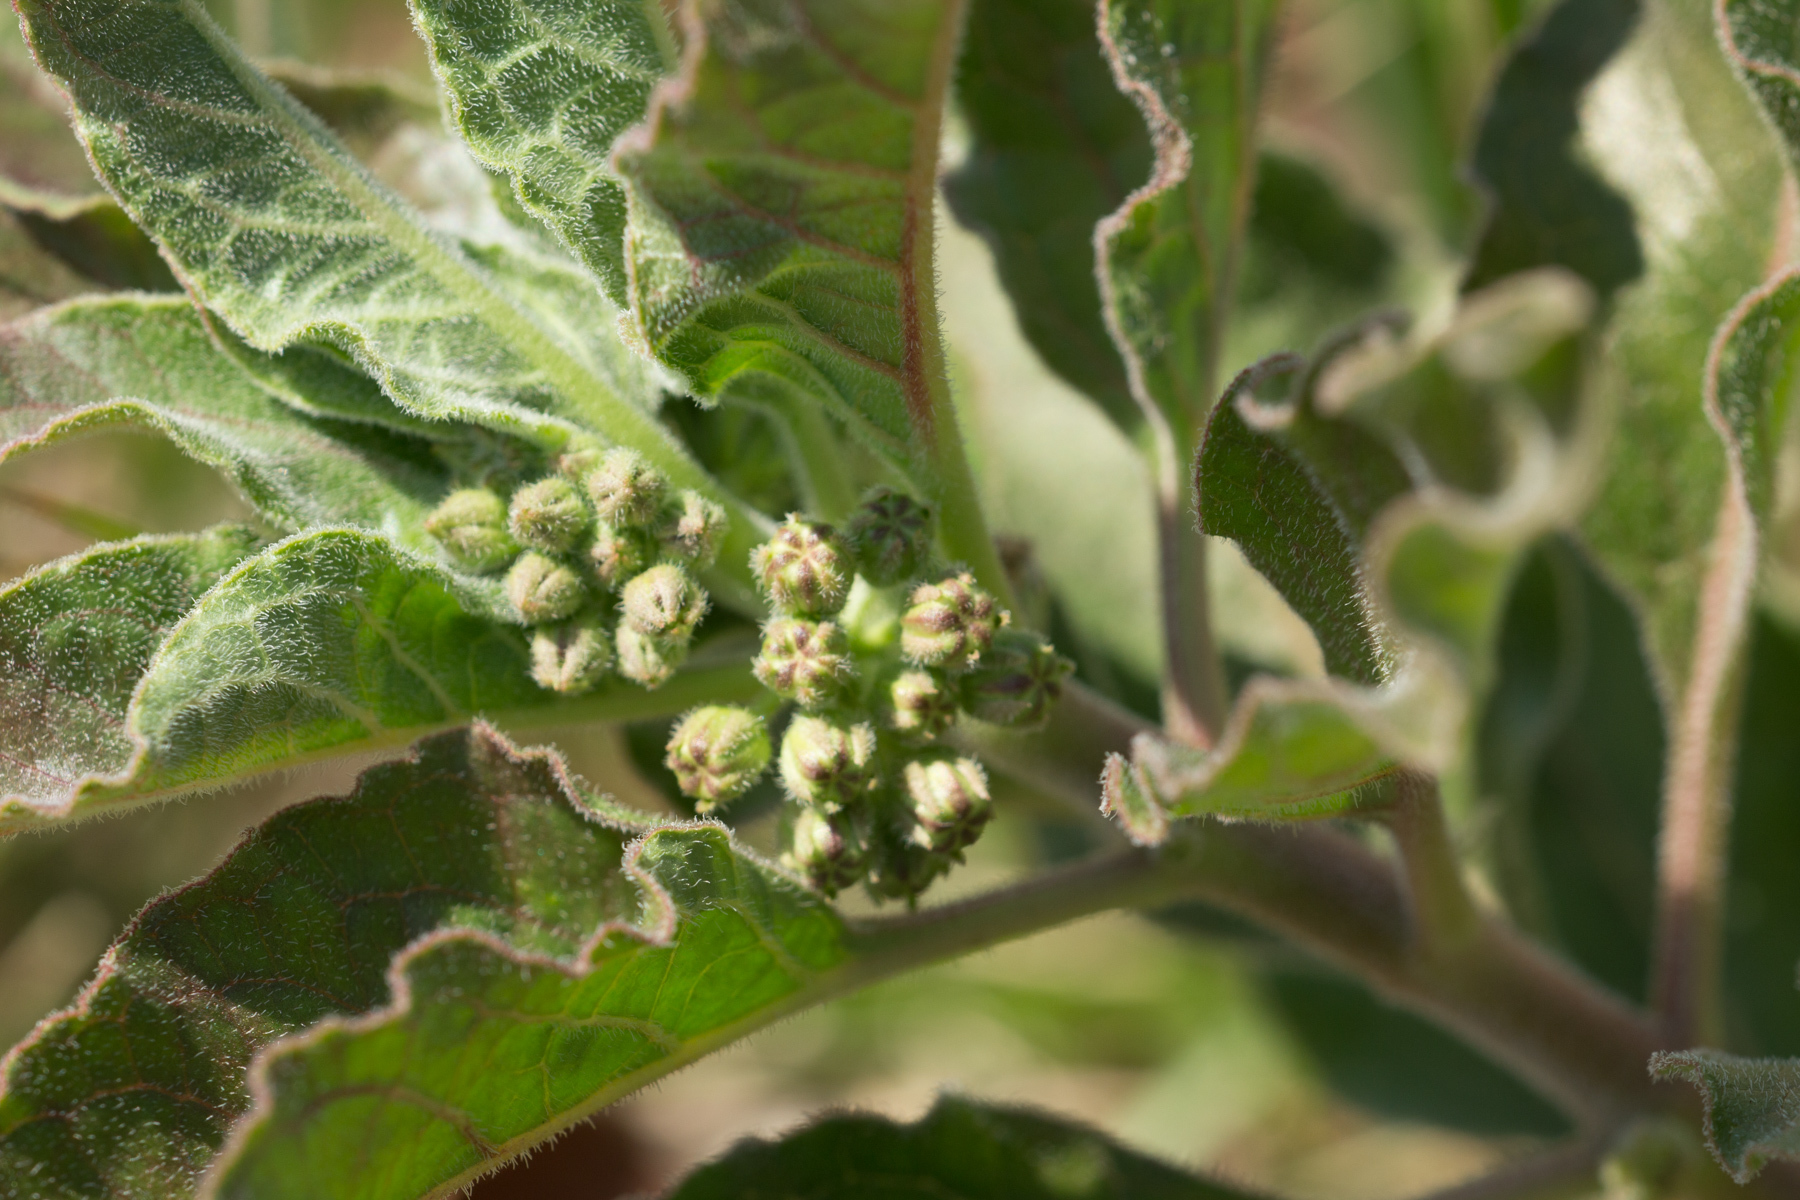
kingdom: Plantae
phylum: Tracheophyta
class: Magnoliopsida
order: Gentianales
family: Apocynaceae
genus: Asclepias
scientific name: Asclepias oenotheroides
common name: Zizotes milkweed
